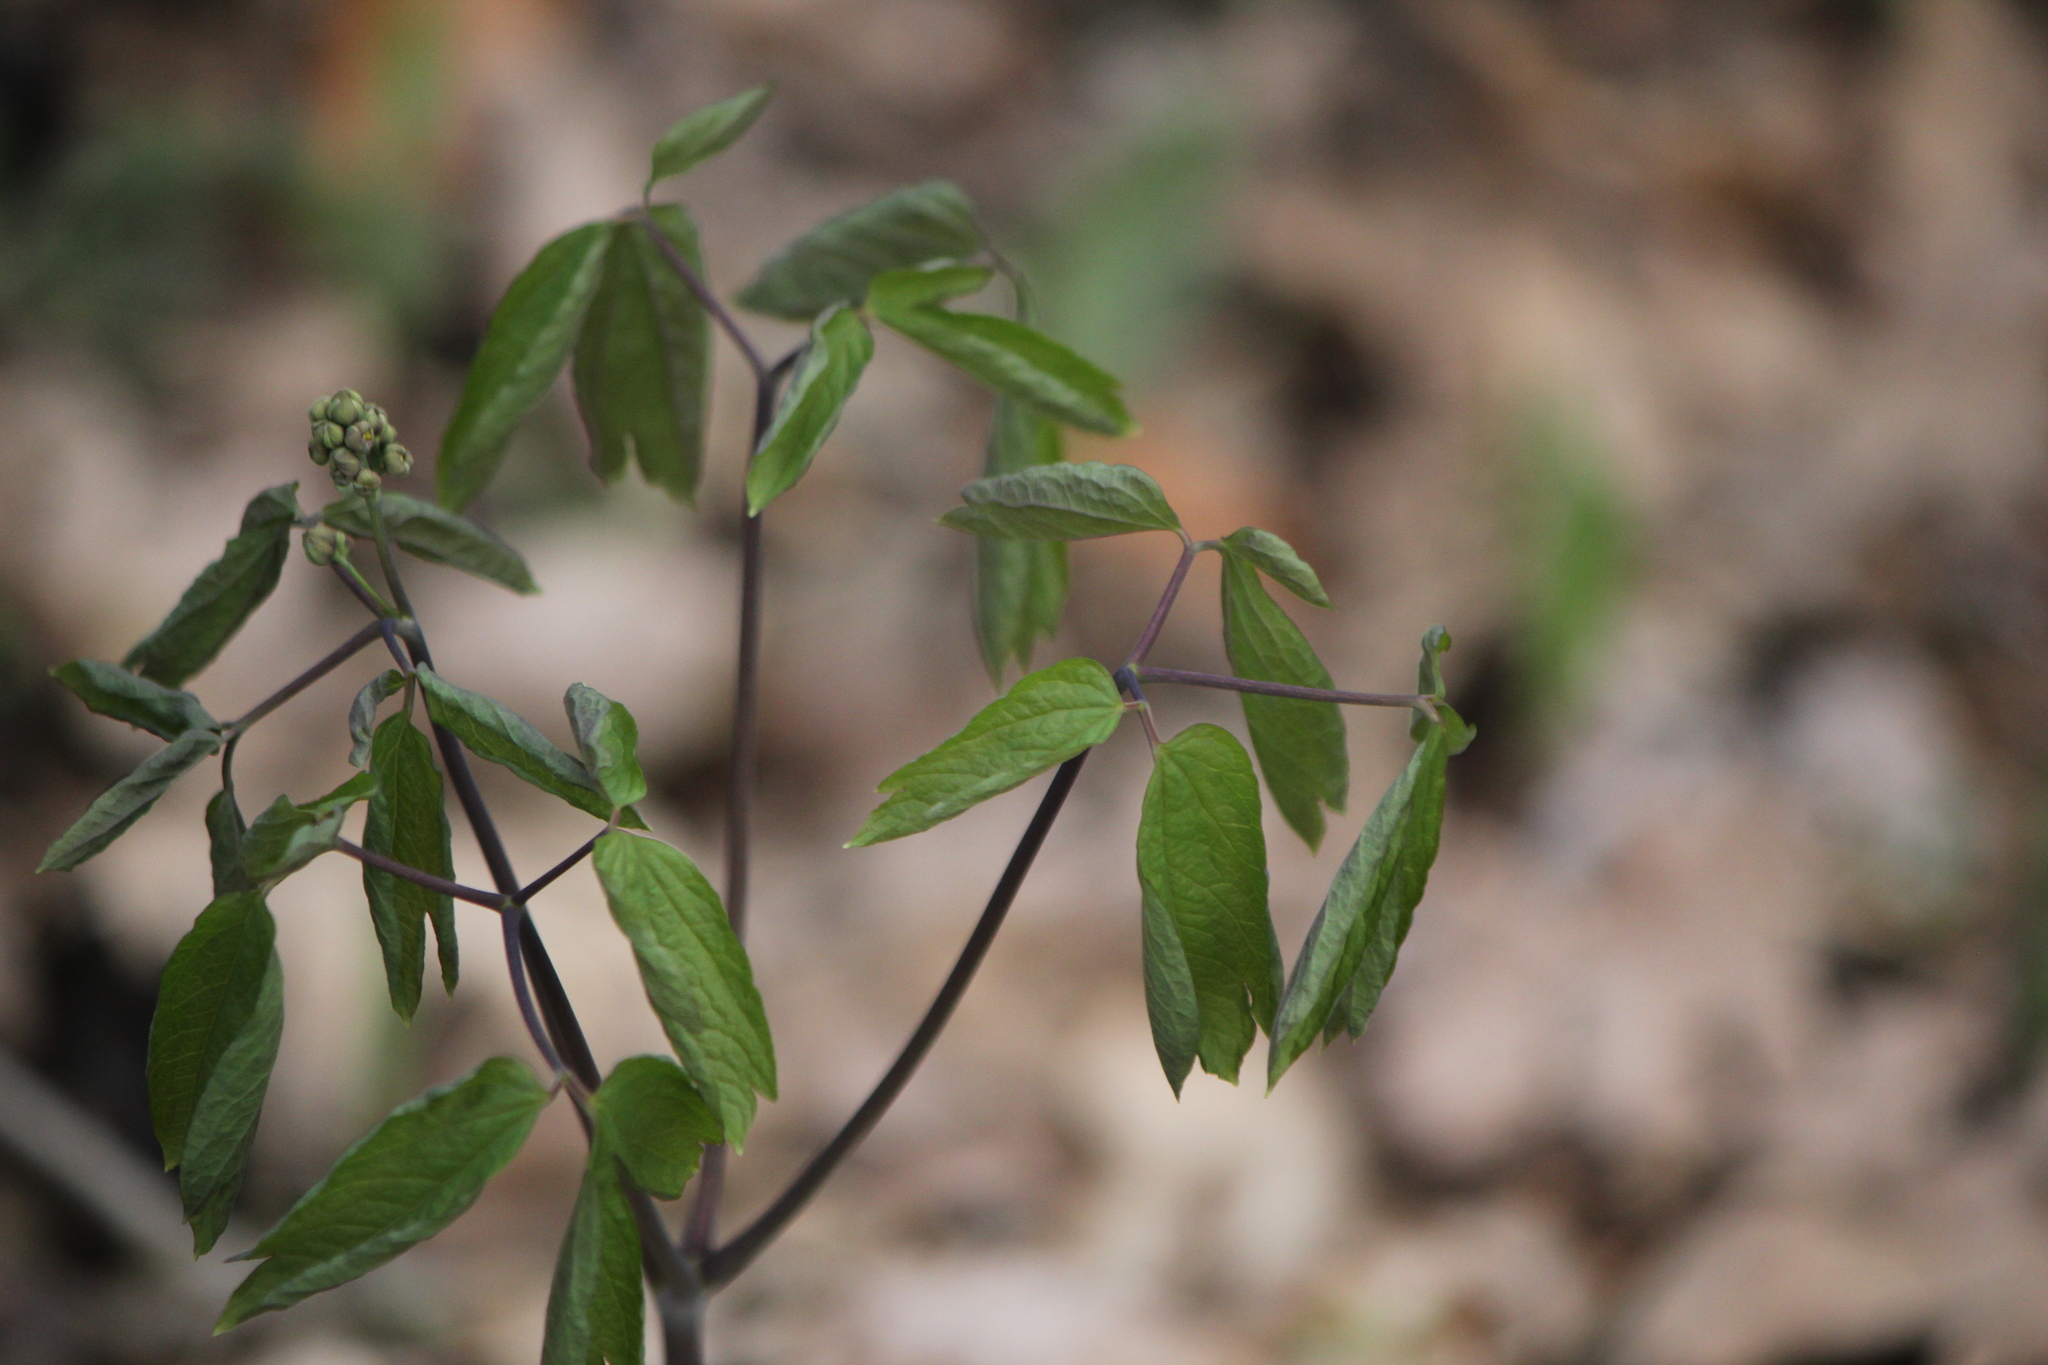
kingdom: Plantae
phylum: Tracheophyta
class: Magnoliopsida
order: Ranunculales
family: Berberidaceae
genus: Caulophyllum
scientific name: Caulophyllum thalictroides
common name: Blue cohosh
